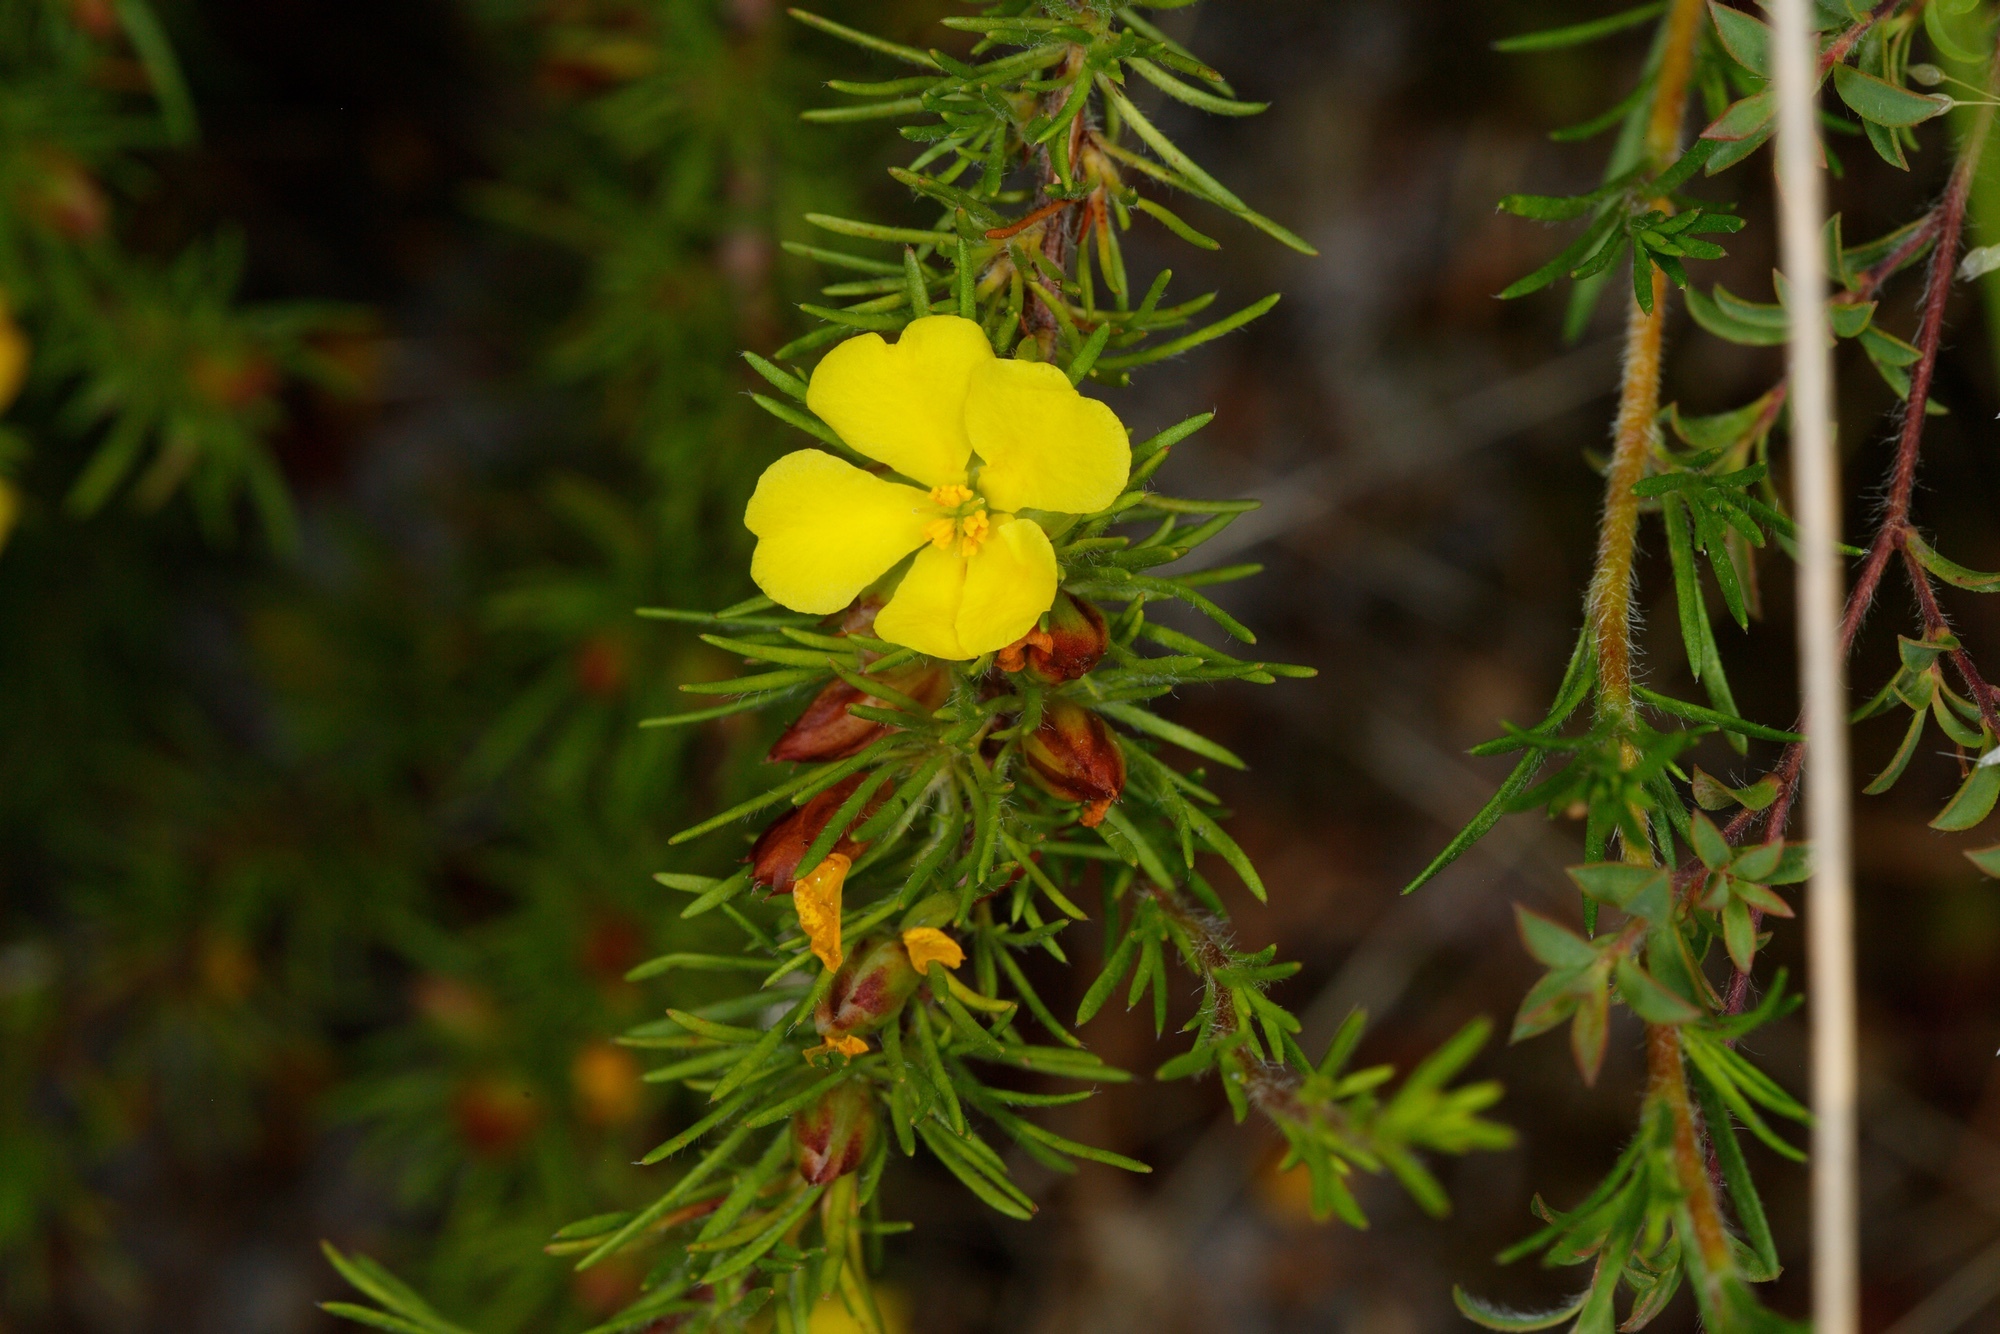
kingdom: Plantae
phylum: Tracheophyta
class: Magnoliopsida
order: Dilleniales
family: Dilleniaceae
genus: Hibbertia
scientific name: Hibbertia prostrata
